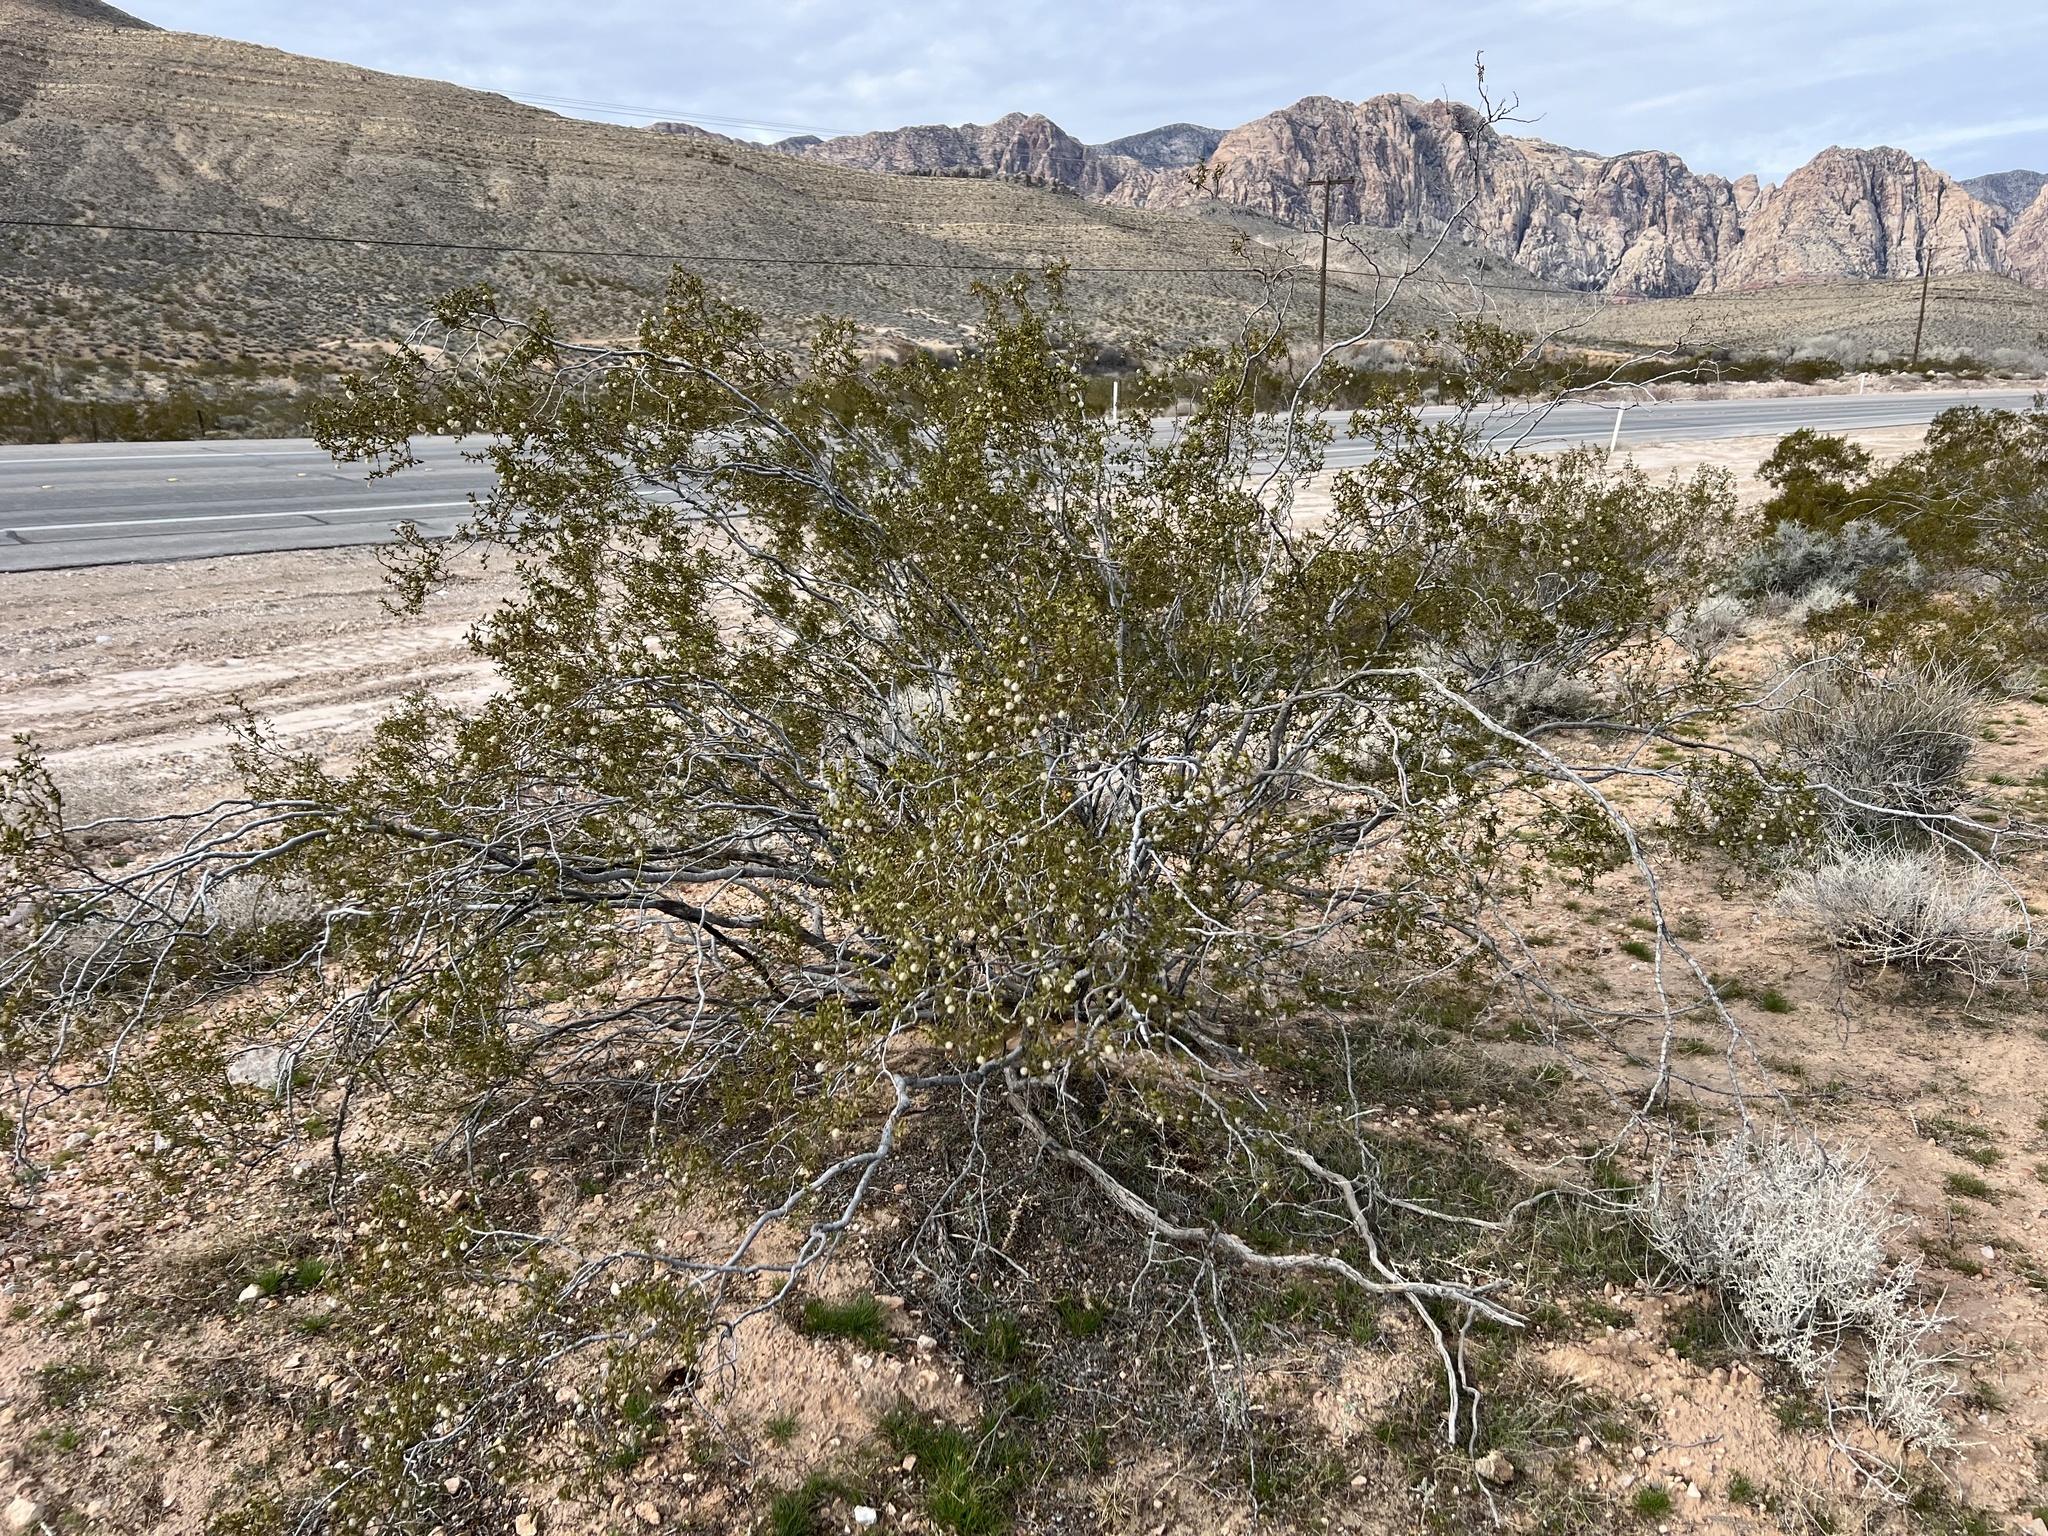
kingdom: Plantae
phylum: Tracheophyta
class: Magnoliopsida
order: Zygophyllales
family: Zygophyllaceae
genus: Larrea
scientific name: Larrea tridentata
